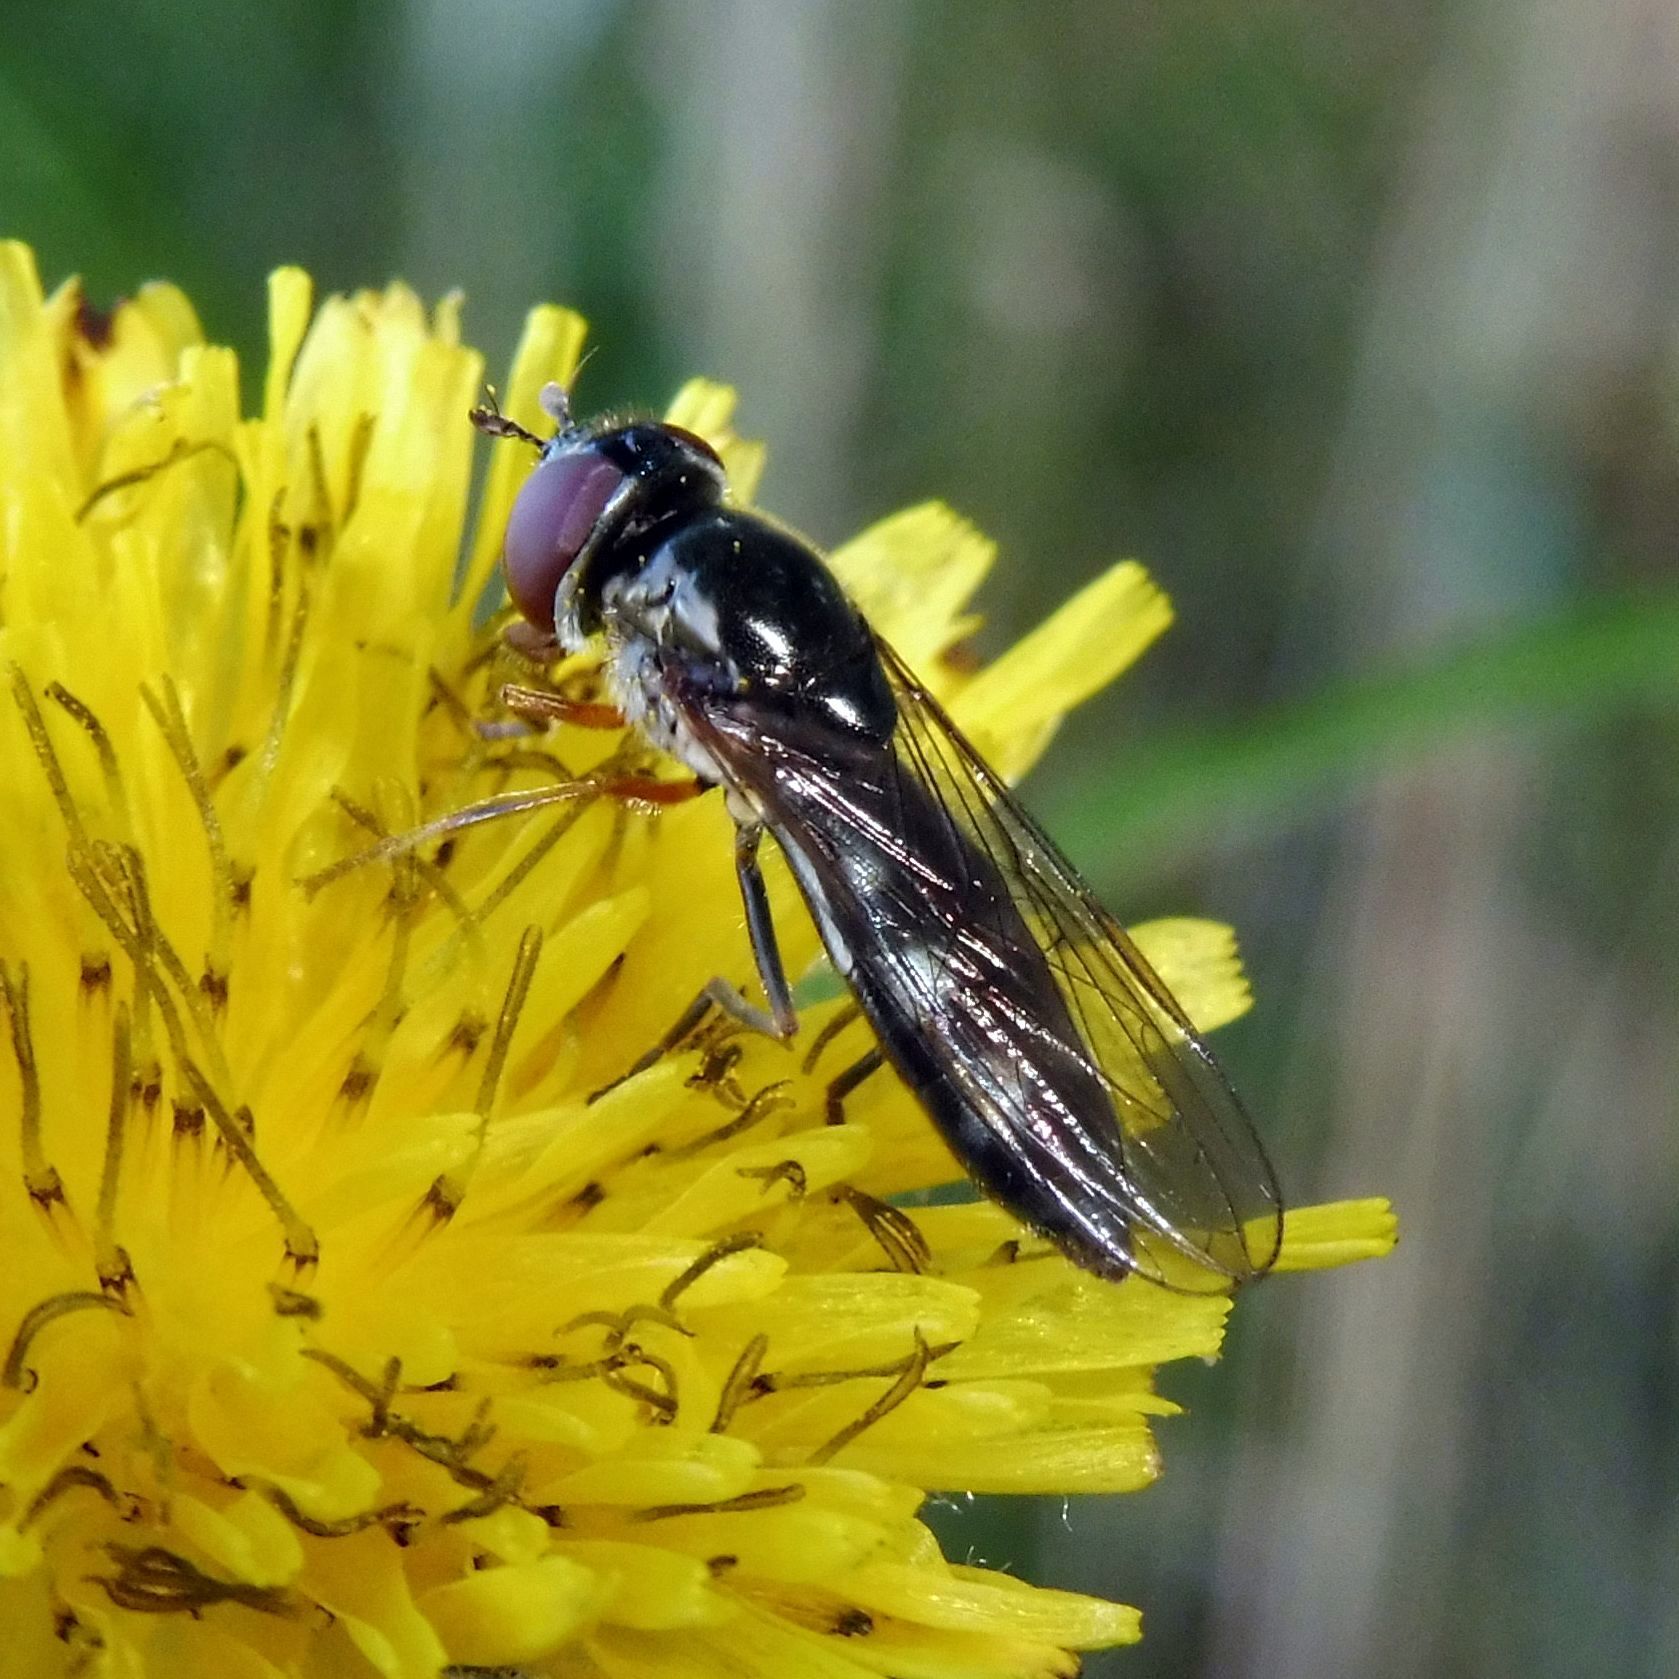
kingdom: Animalia
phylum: Arthropoda
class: Insecta
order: Diptera
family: Syrphidae
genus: Platycheirus
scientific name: Platycheirus albimanus
